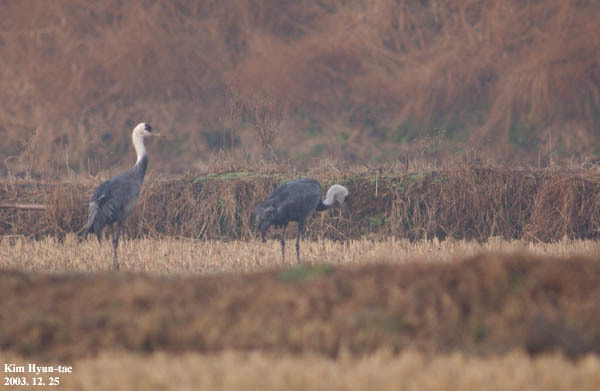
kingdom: Animalia
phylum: Chordata
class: Aves
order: Gruiformes
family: Gruidae
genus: Grus
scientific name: Grus monacha
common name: Hooded crane
